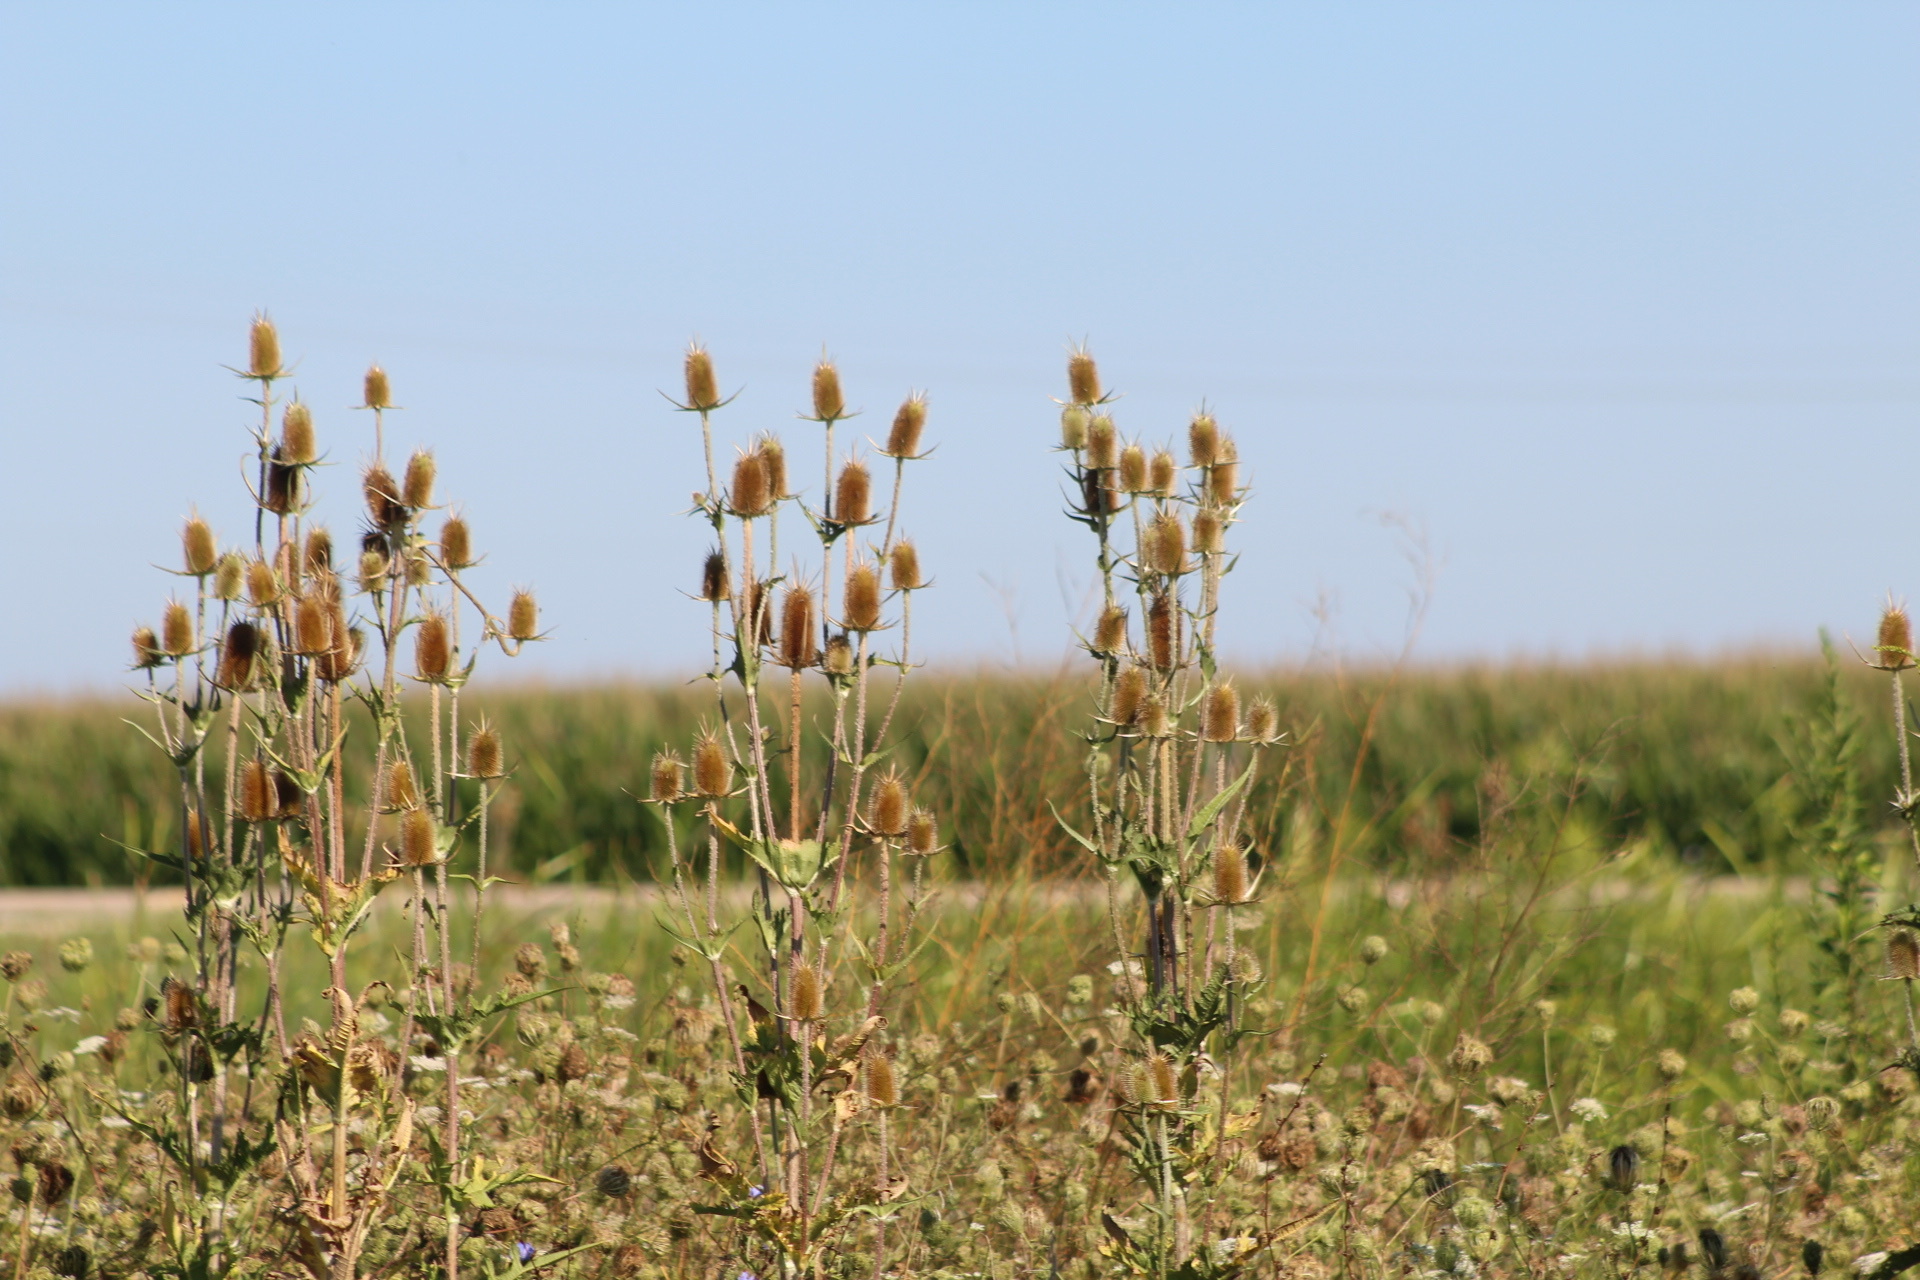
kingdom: Plantae
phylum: Tracheophyta
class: Magnoliopsida
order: Dipsacales
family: Caprifoliaceae
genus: Dipsacus
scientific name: Dipsacus laciniatus
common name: Cut-leaved teasel
